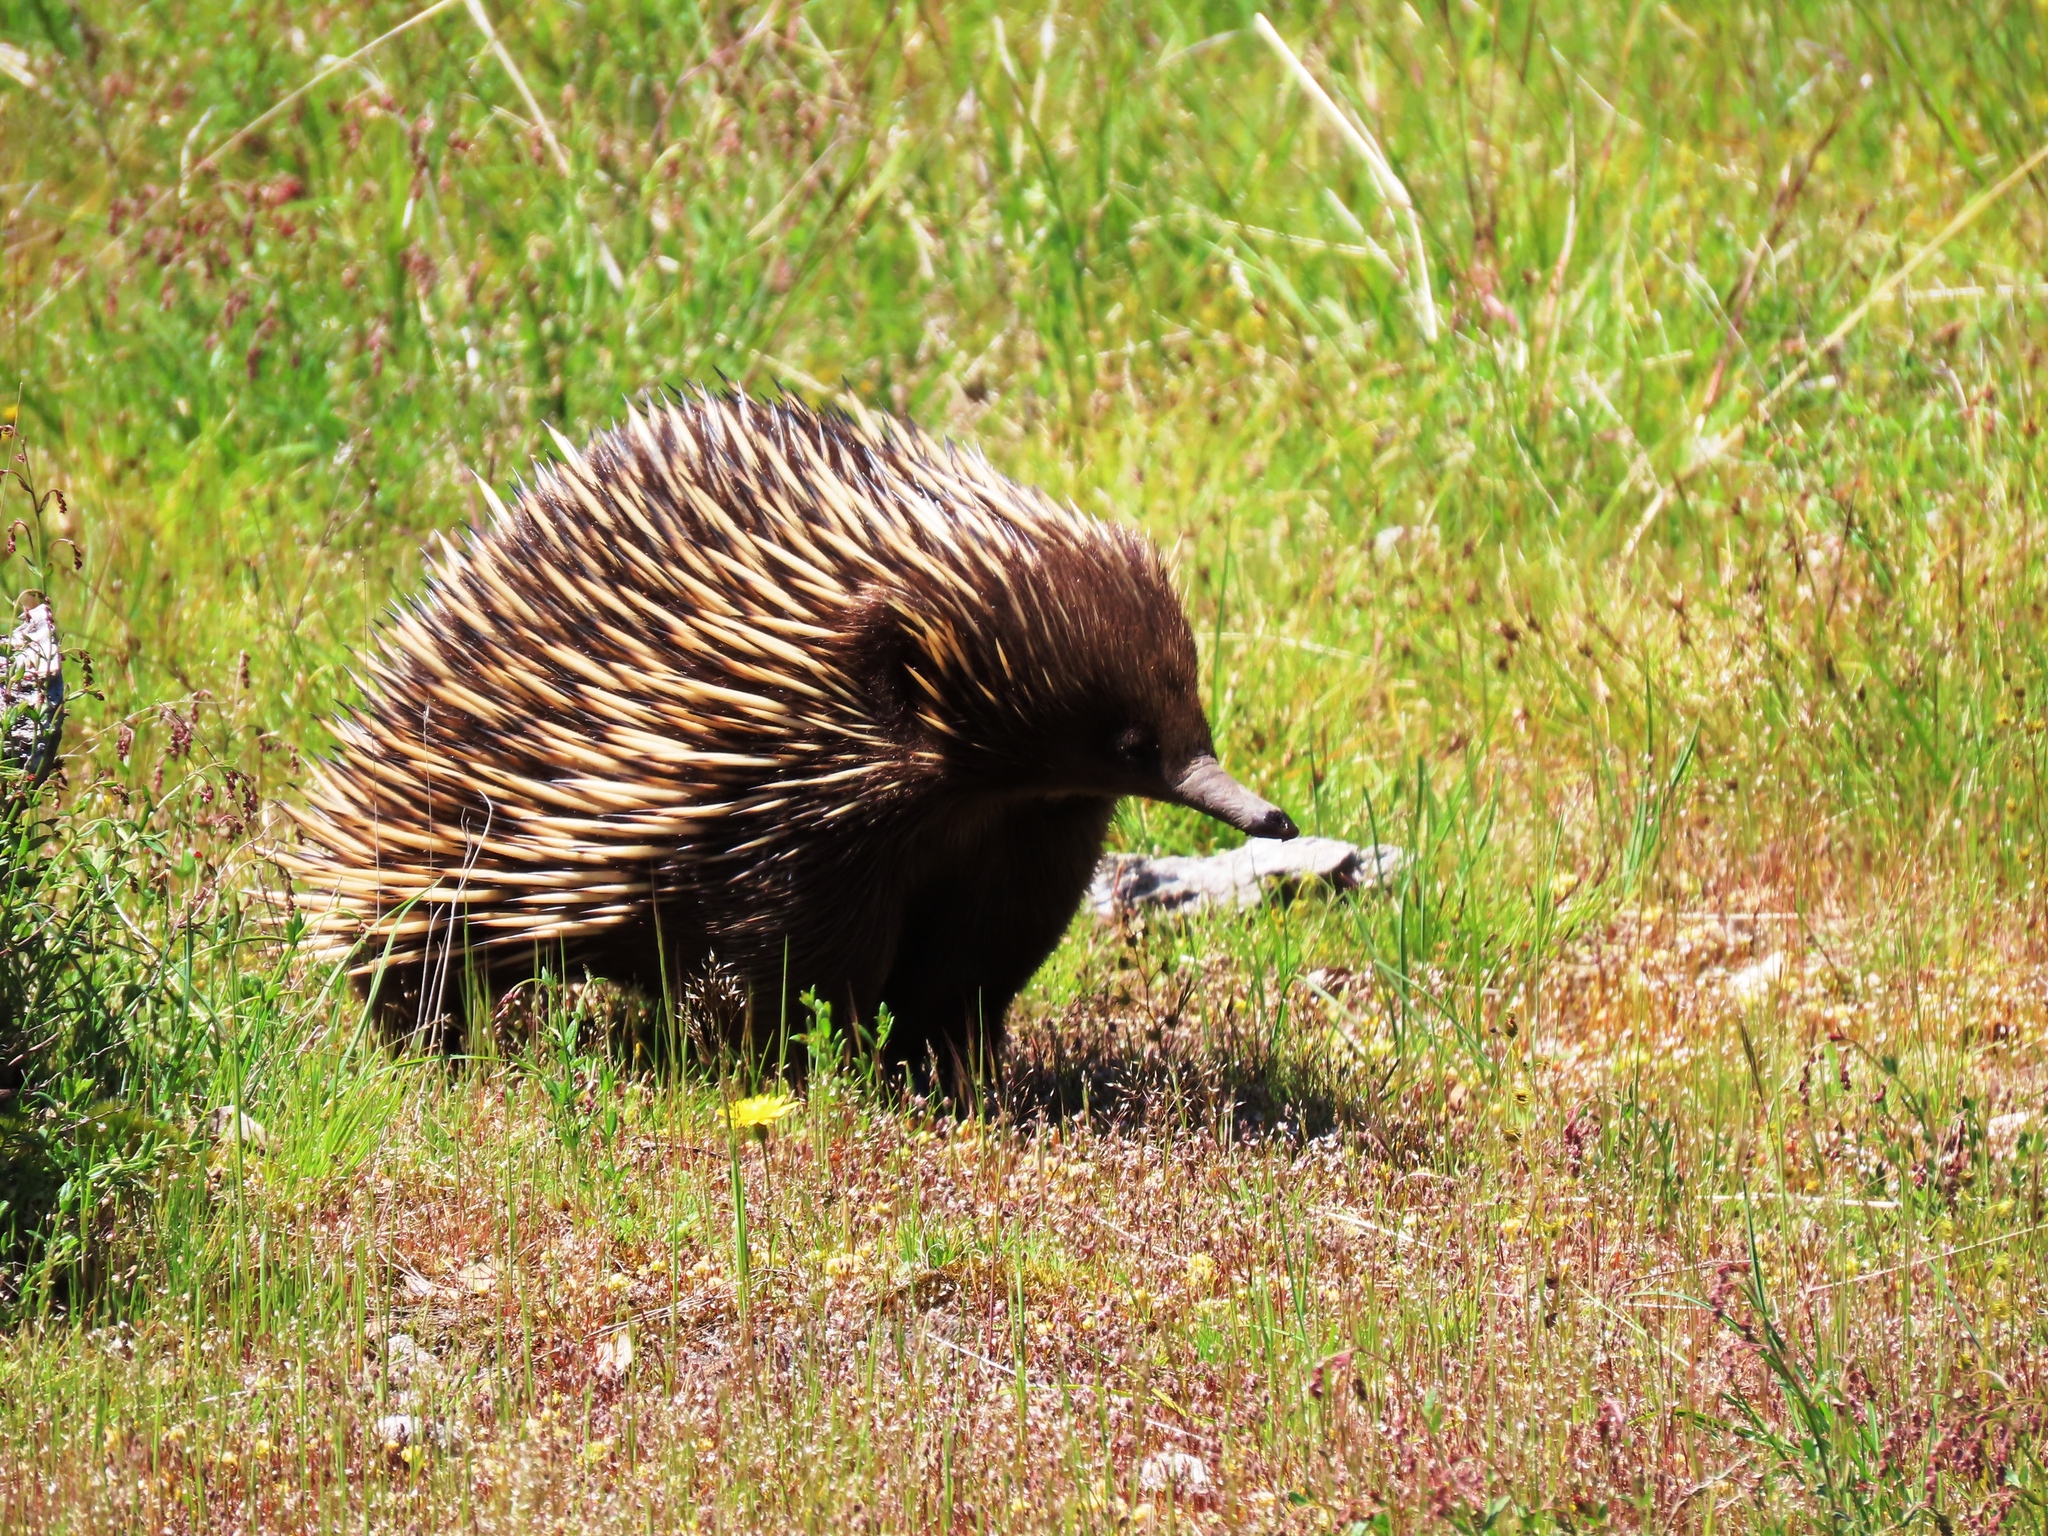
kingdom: Animalia
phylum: Chordata
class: Mammalia
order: Monotremata
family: Tachyglossidae
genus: Tachyglossus
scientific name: Tachyglossus aculeatus
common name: Short-beaked echidna
